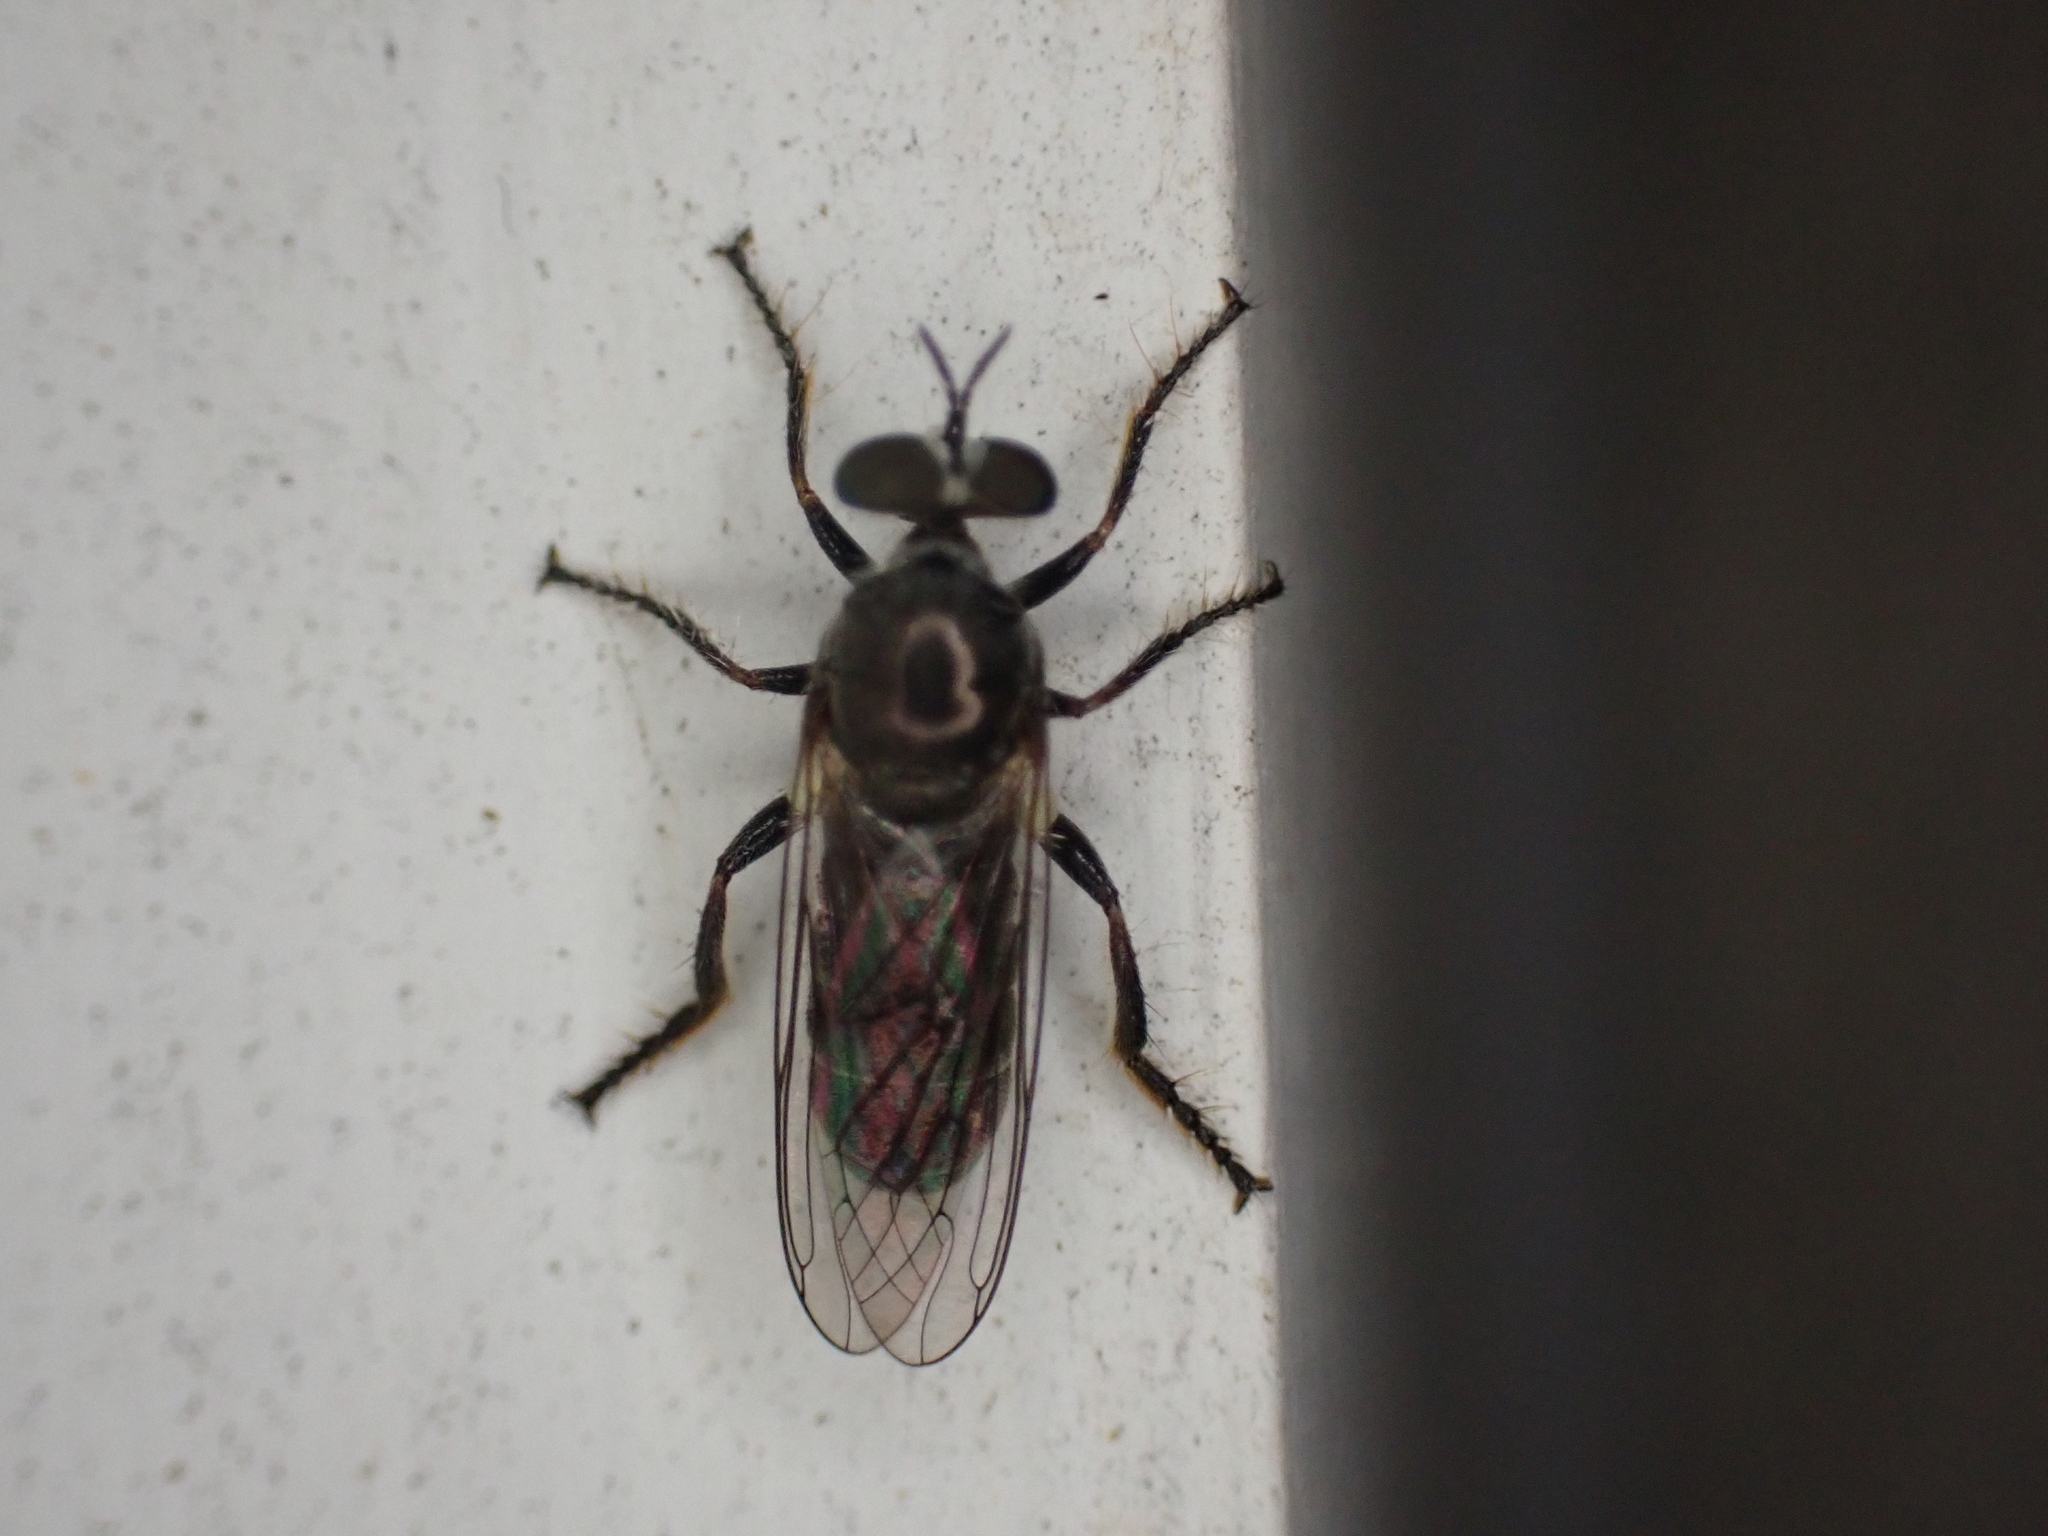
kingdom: Animalia
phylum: Arthropoda
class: Insecta
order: Diptera
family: Asilidae
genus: Atomosia
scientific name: Atomosia puella
